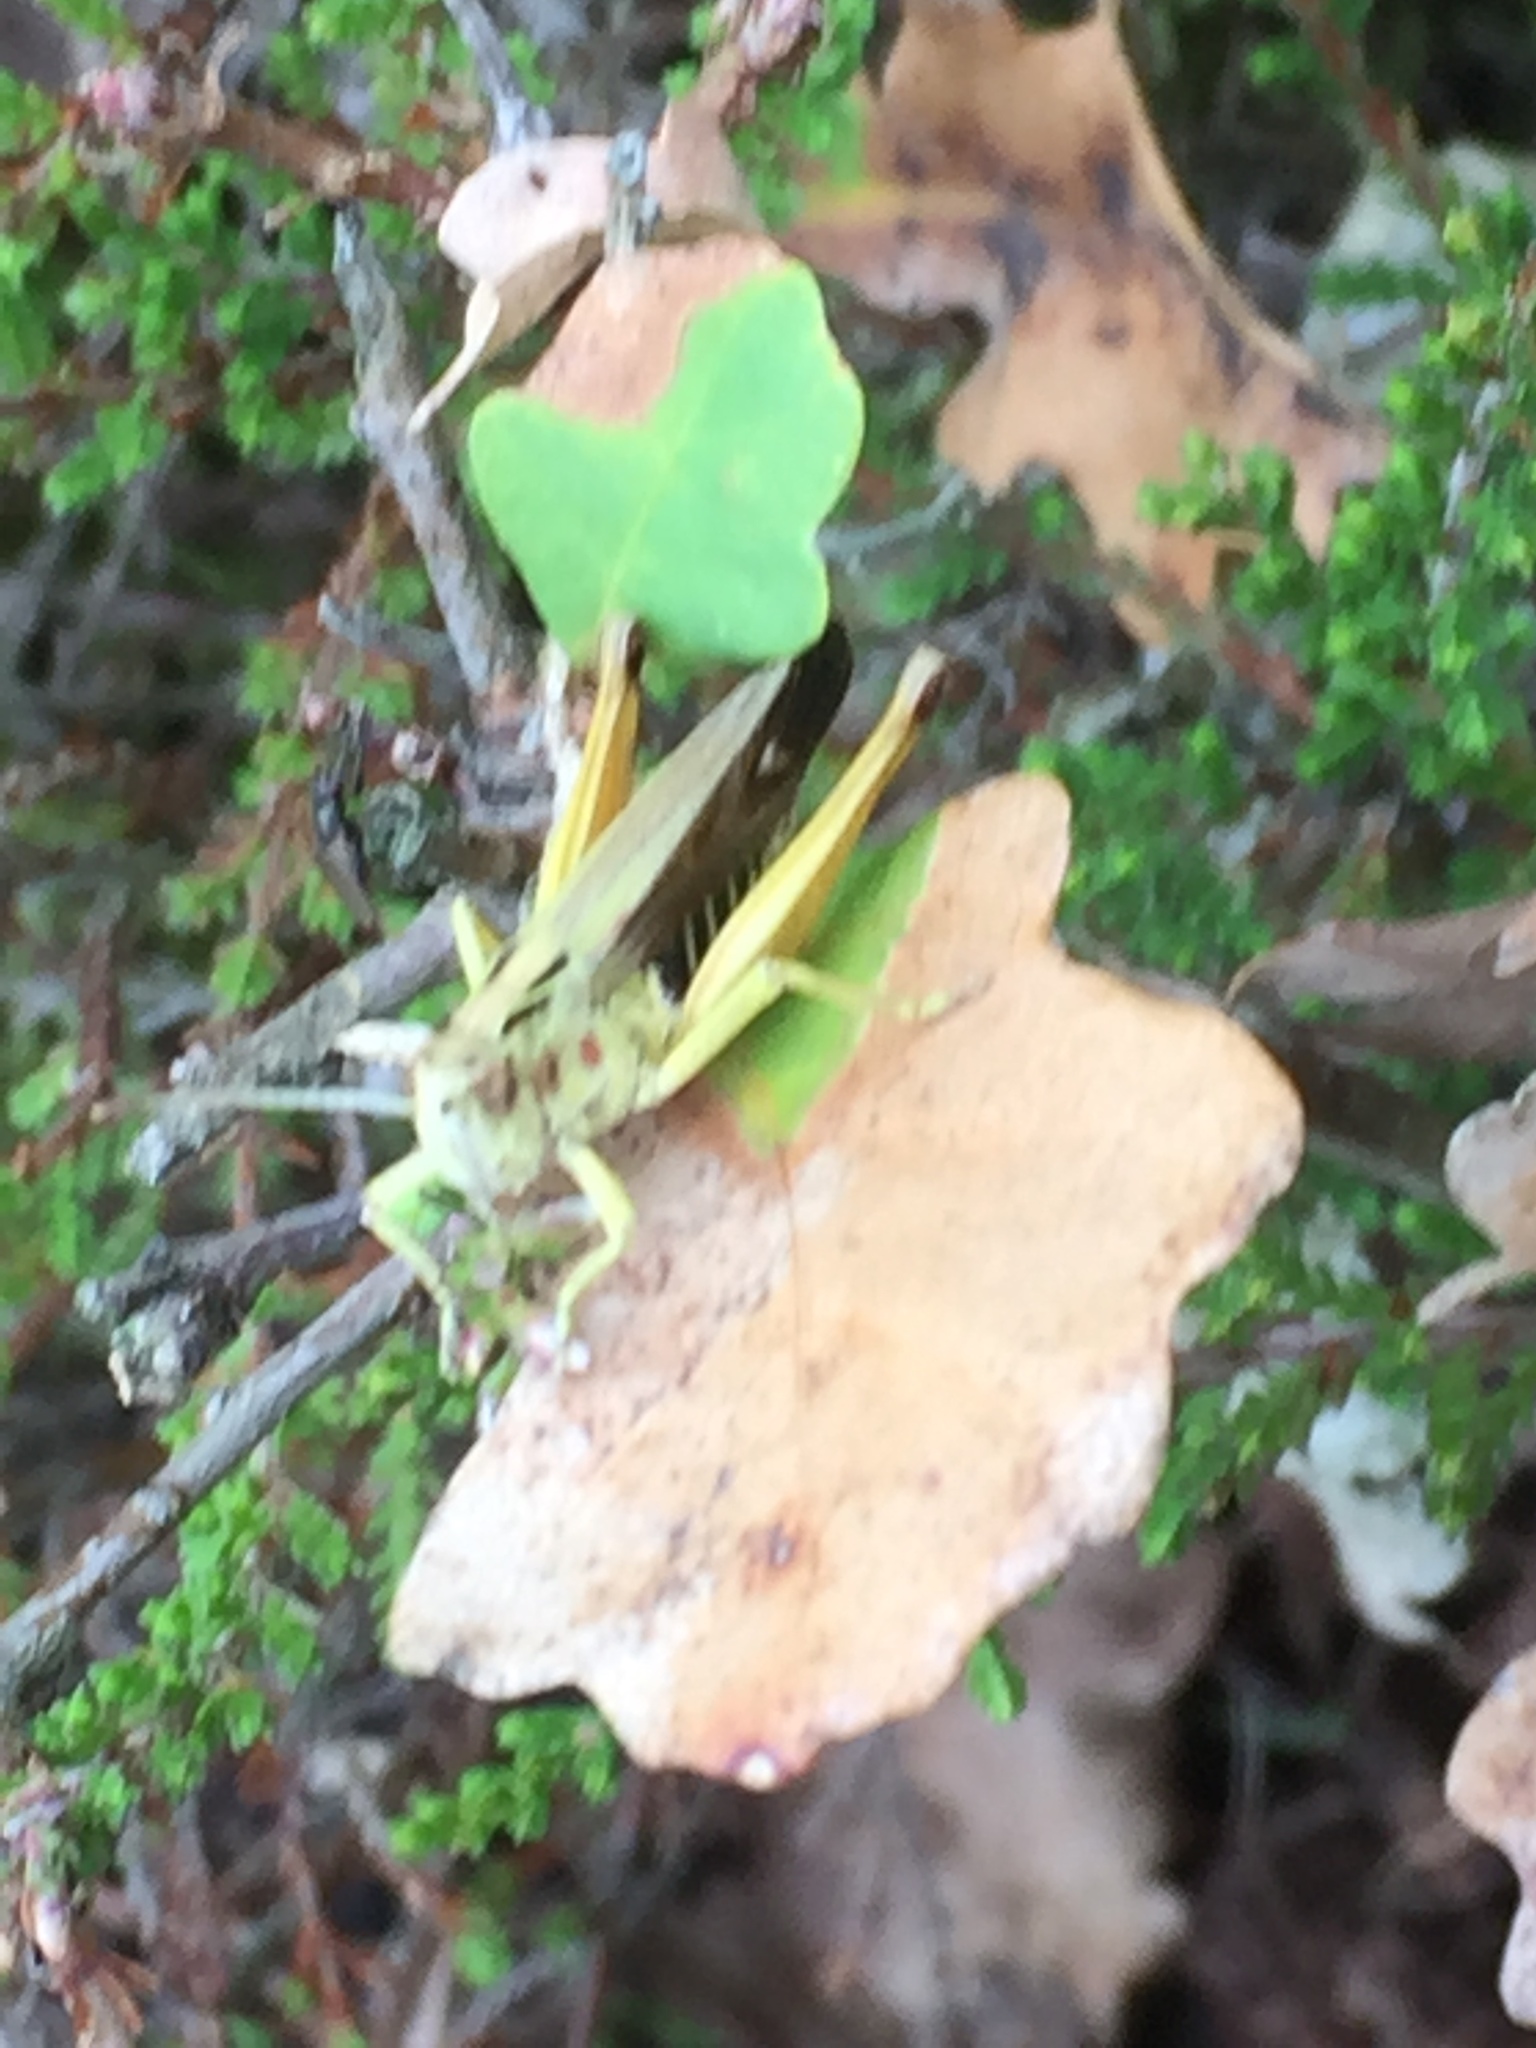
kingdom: Animalia
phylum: Arthropoda
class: Insecta
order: Orthoptera
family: Acrididae
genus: Omocestus
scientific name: Omocestus viridulus
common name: Common green grasshopper
